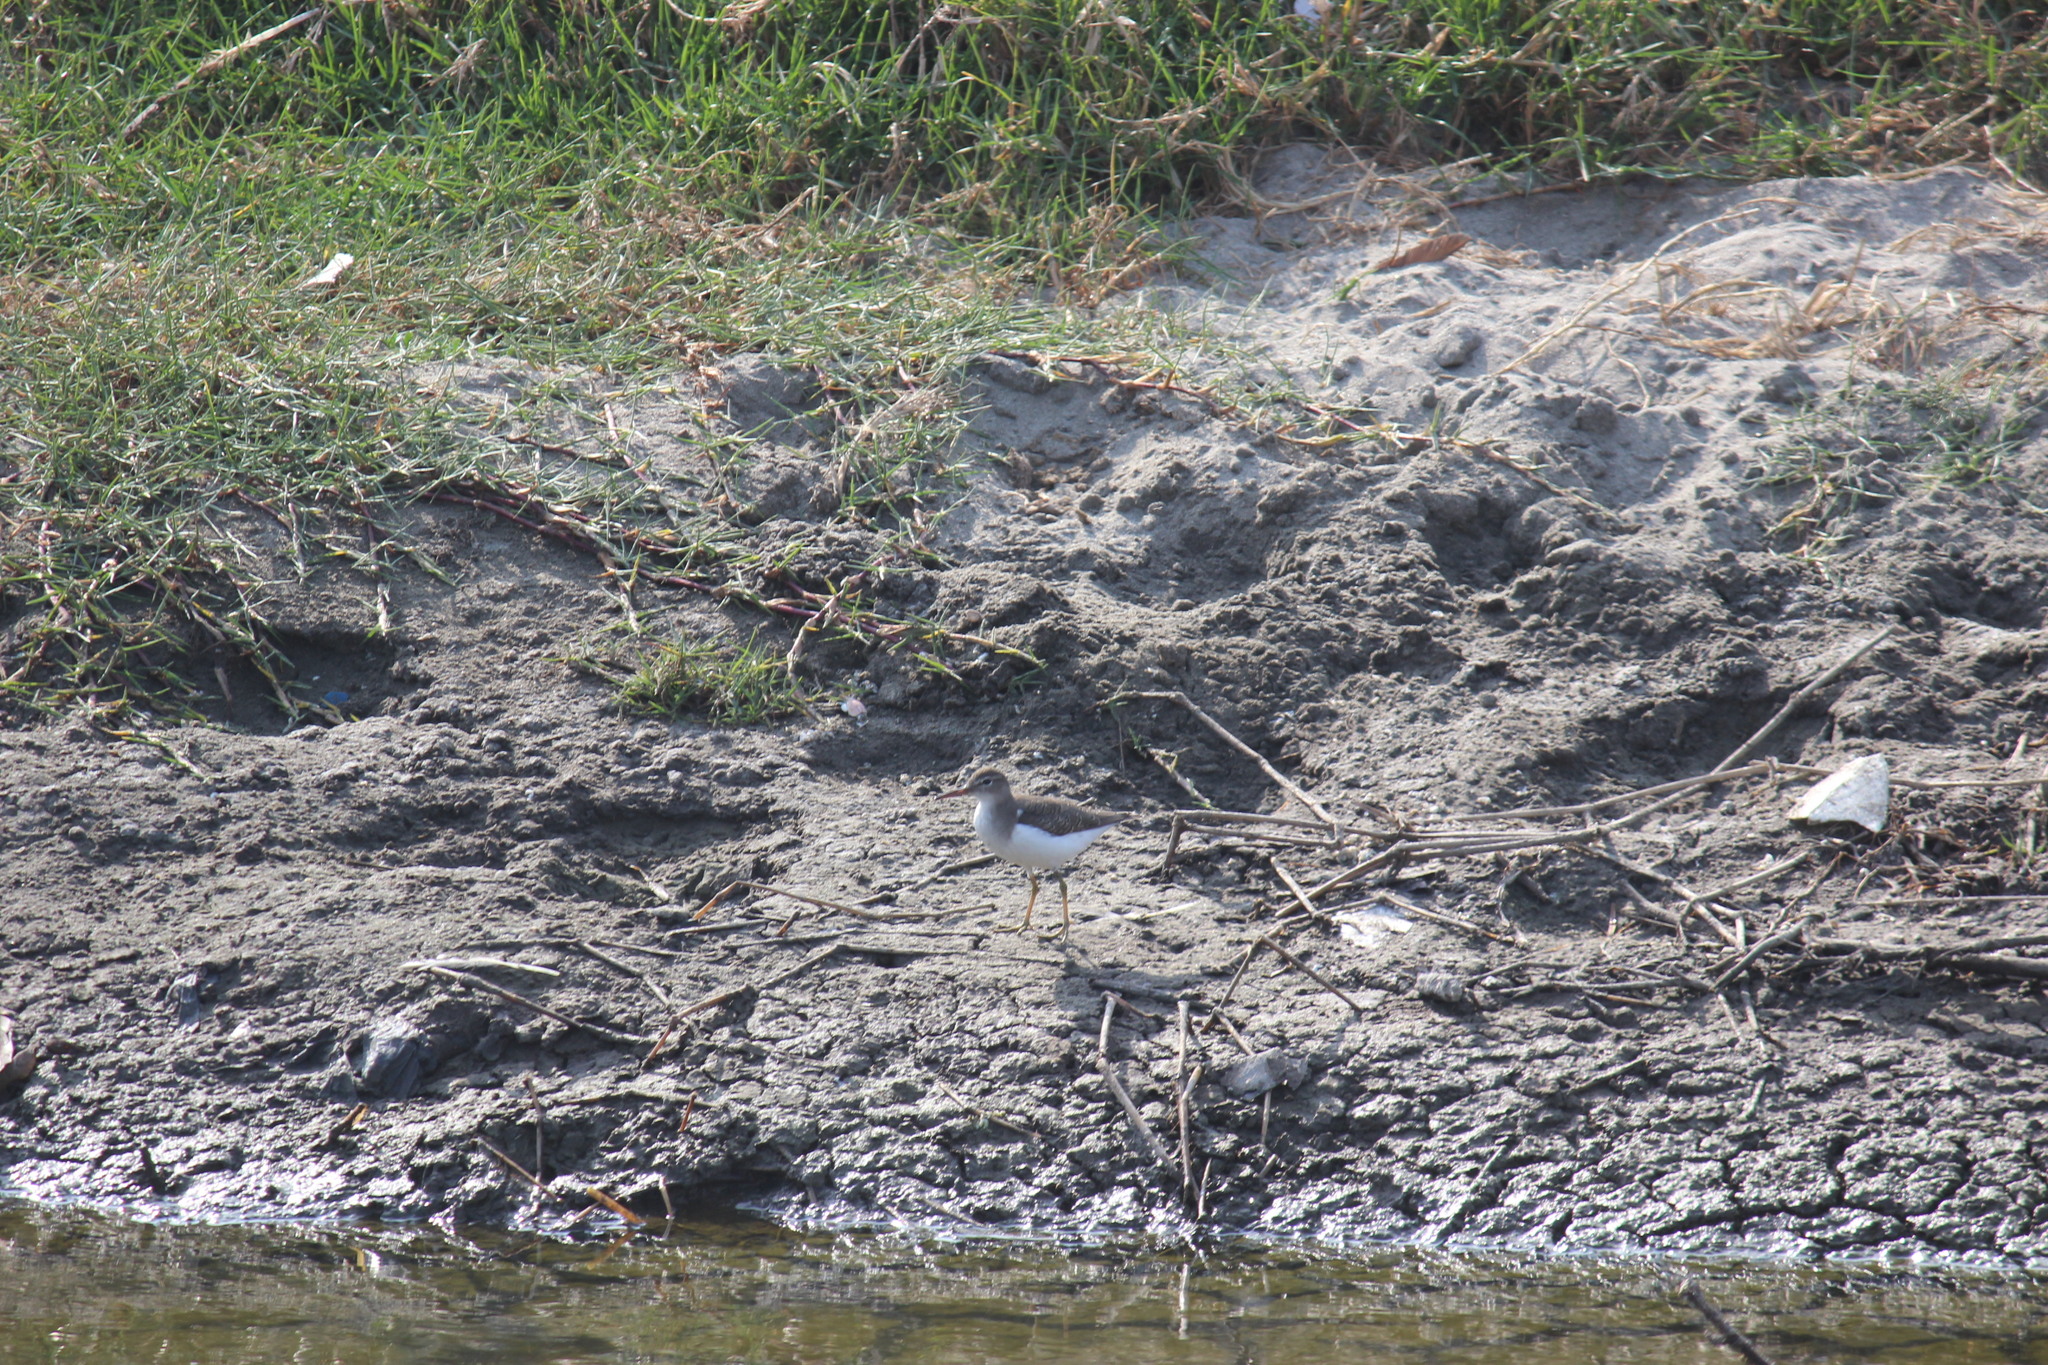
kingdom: Animalia
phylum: Chordata
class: Aves
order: Charadriiformes
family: Scolopacidae
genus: Actitis
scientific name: Actitis macularius
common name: Spotted sandpiper
